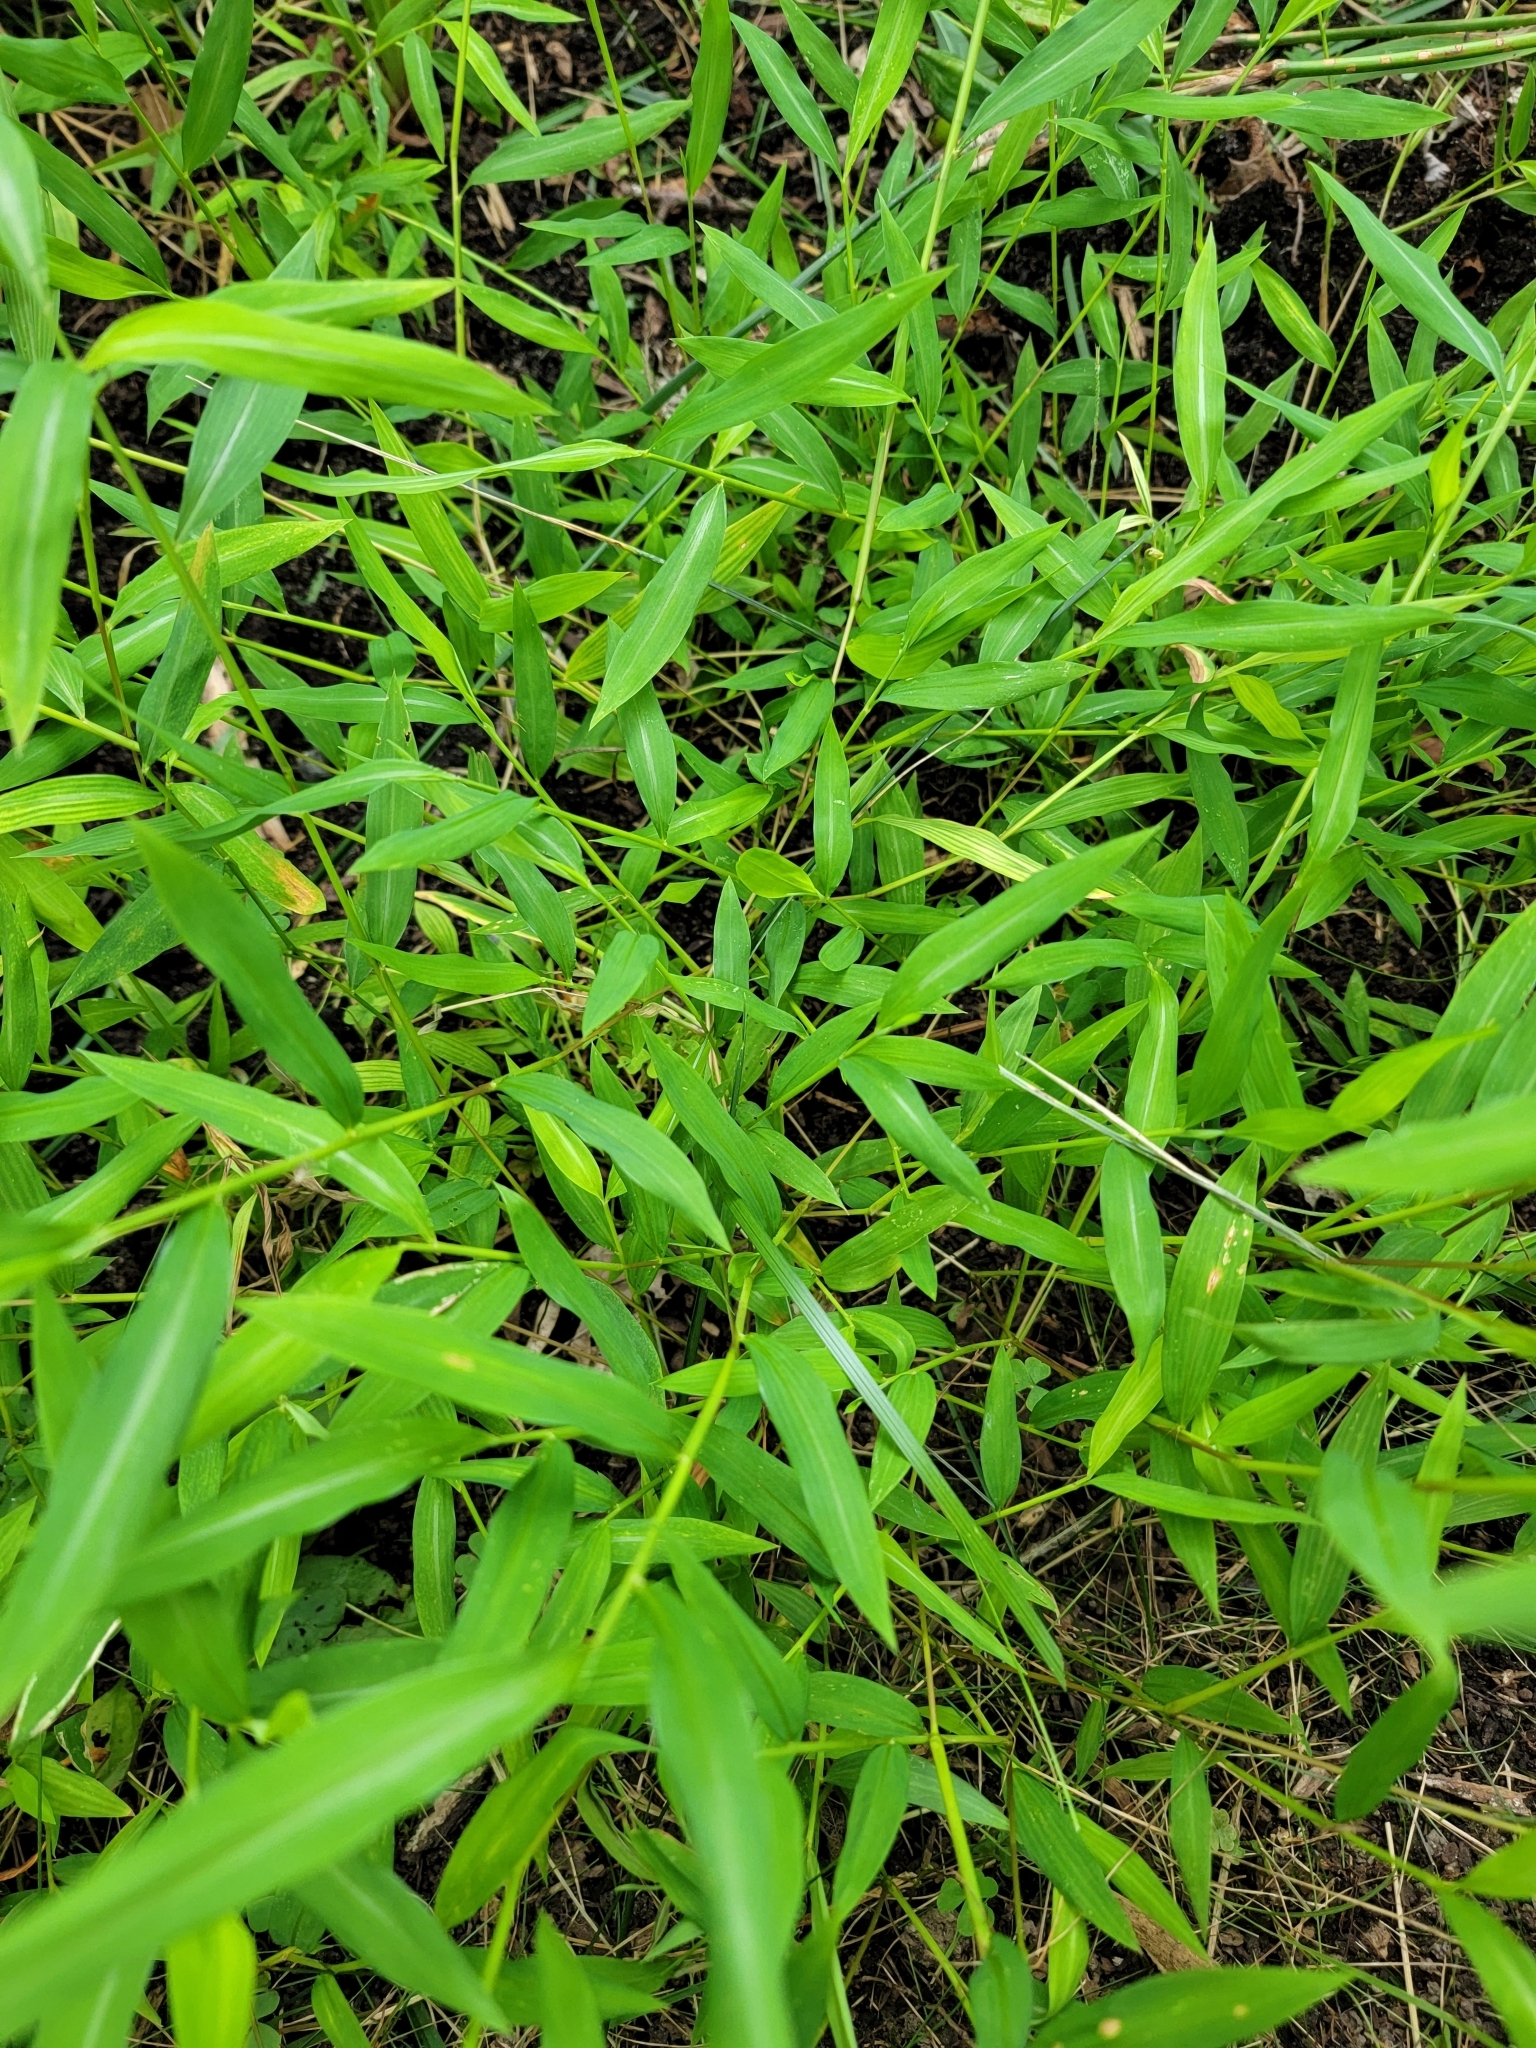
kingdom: Plantae
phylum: Tracheophyta
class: Liliopsida
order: Poales
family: Poaceae
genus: Microstegium
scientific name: Microstegium vimineum
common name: Japanese stiltgrass
